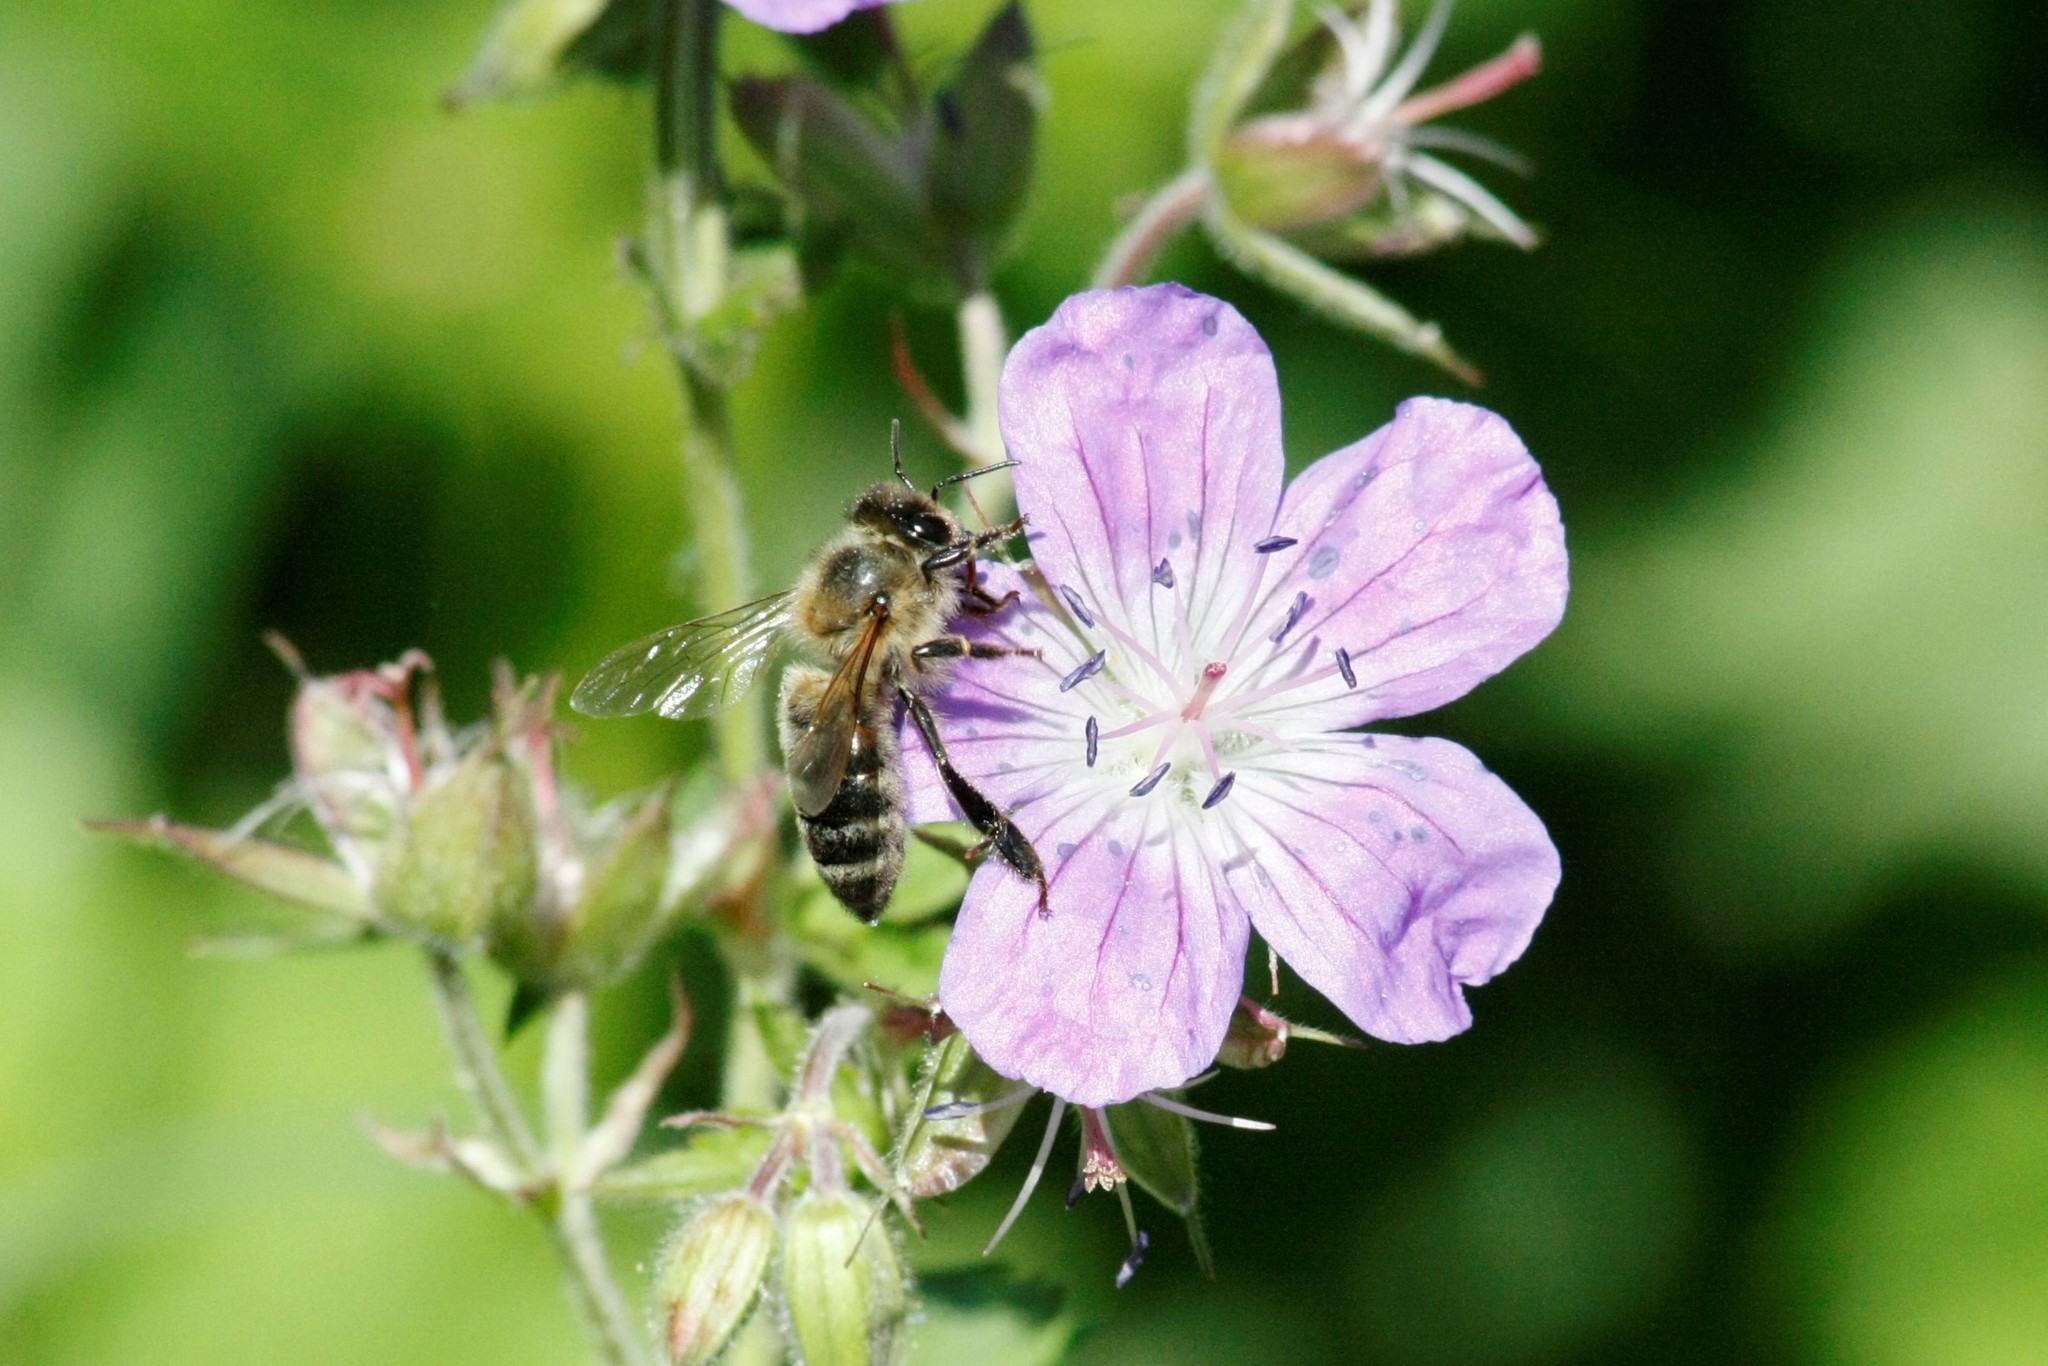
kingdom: Animalia
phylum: Arthropoda
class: Insecta
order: Hymenoptera
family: Apidae
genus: Apis
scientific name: Apis mellifera
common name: Honey bee
